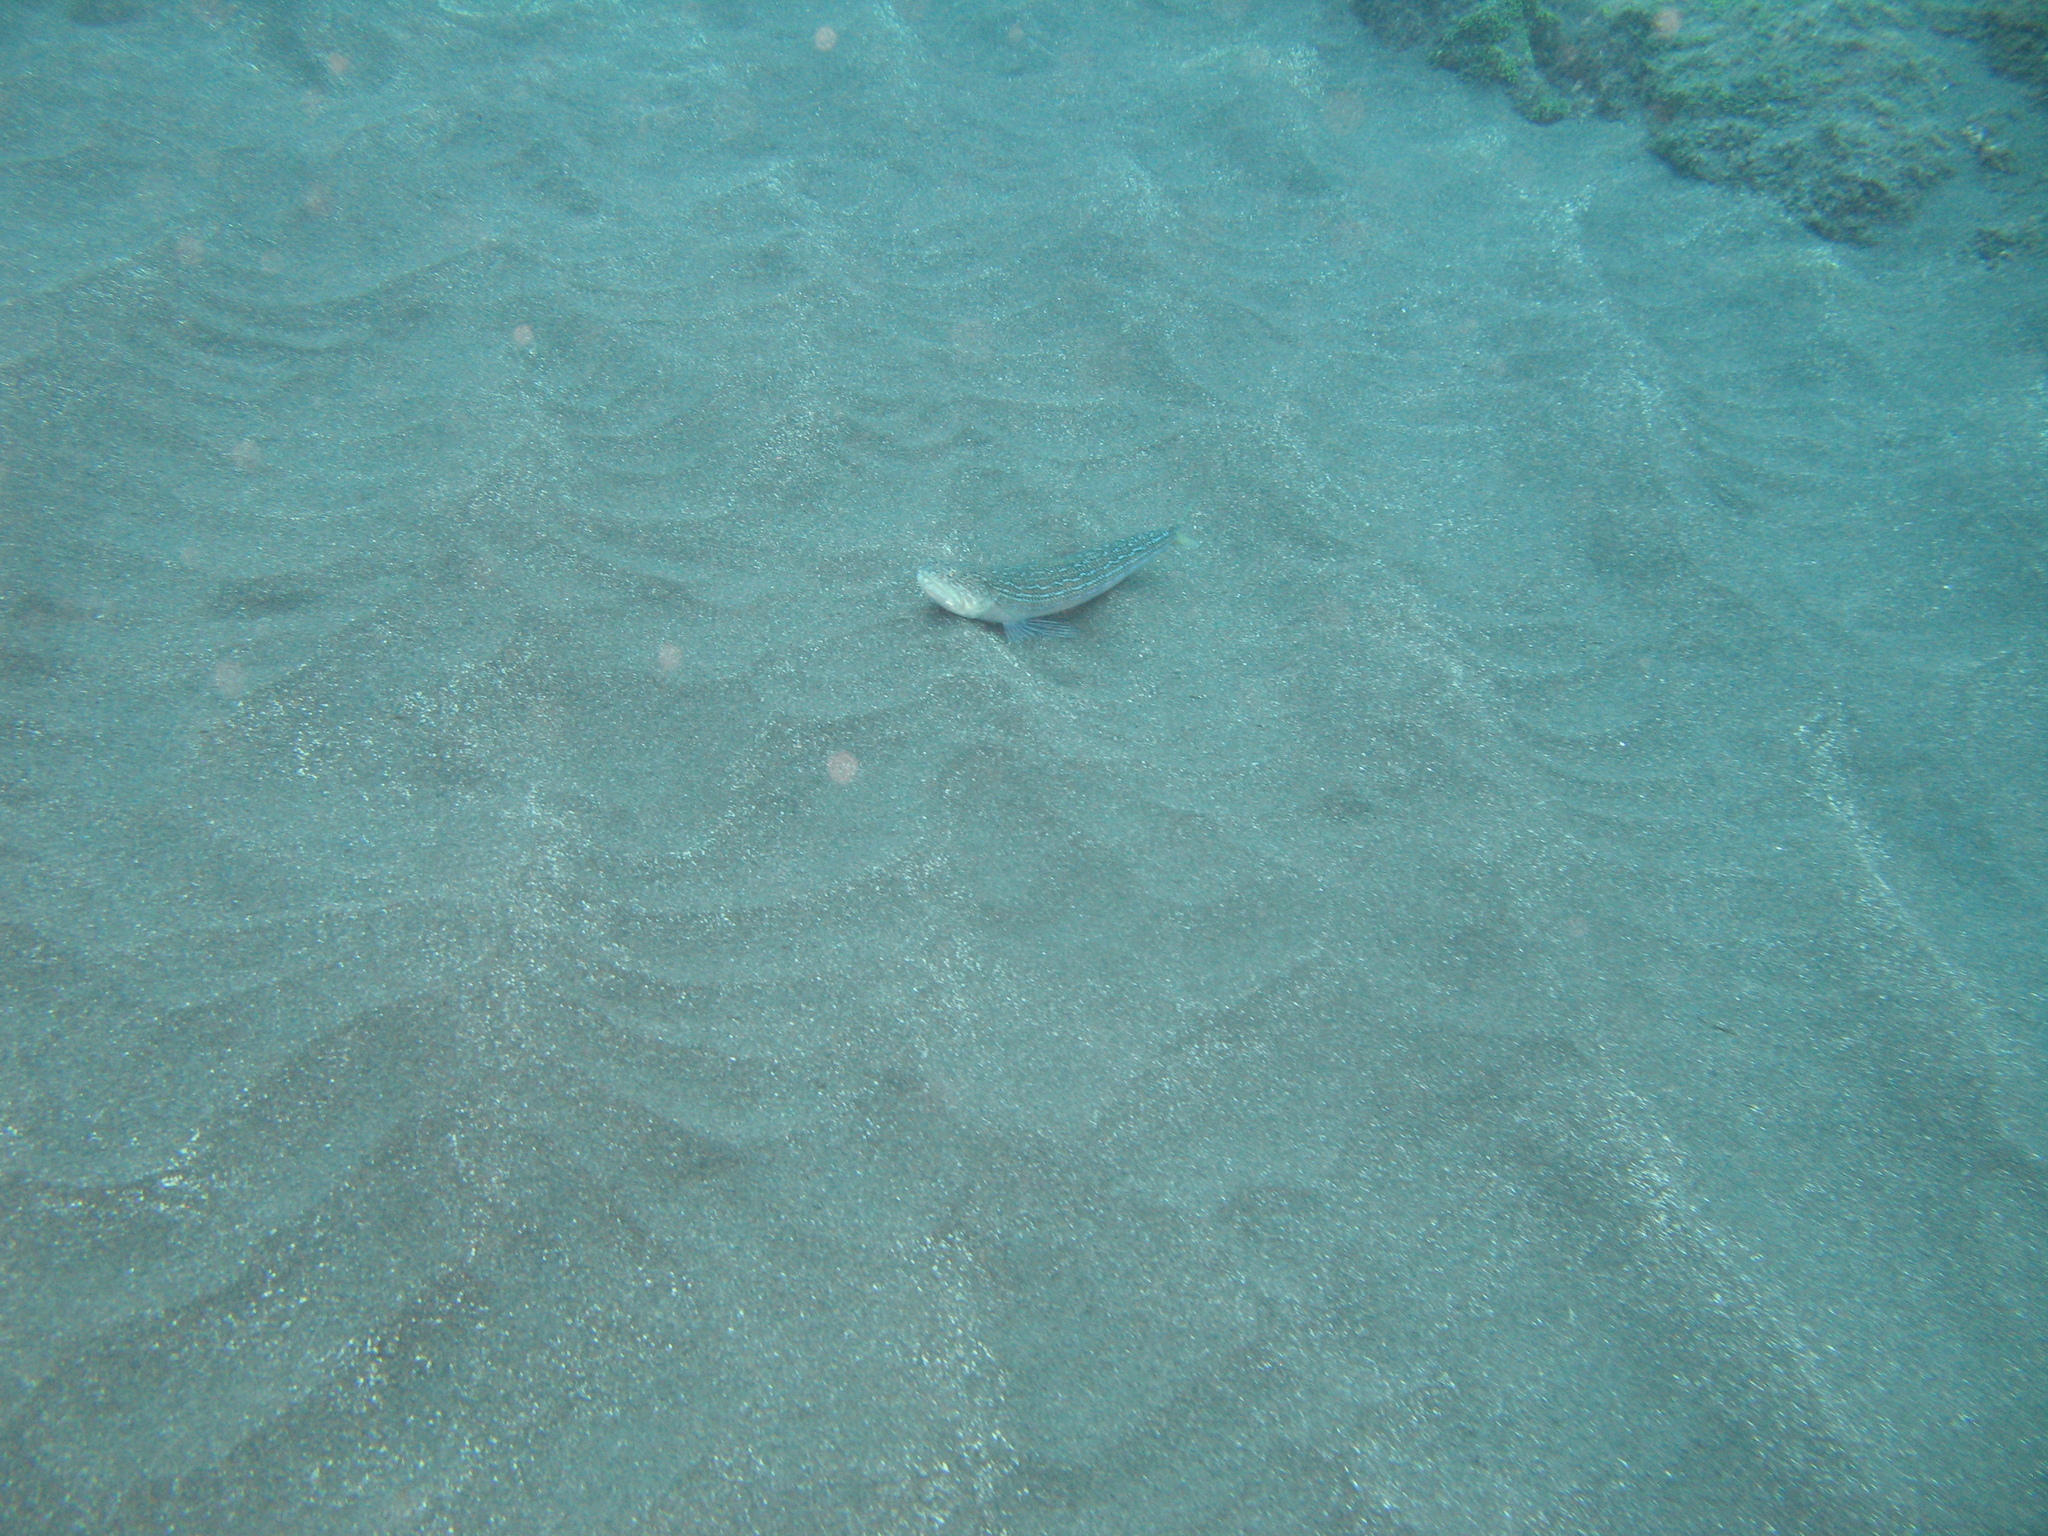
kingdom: Animalia
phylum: Chordata
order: Aulopiformes
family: Synodontidae
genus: Synodus
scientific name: Synodus saurus
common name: Atlantic lizardfish
